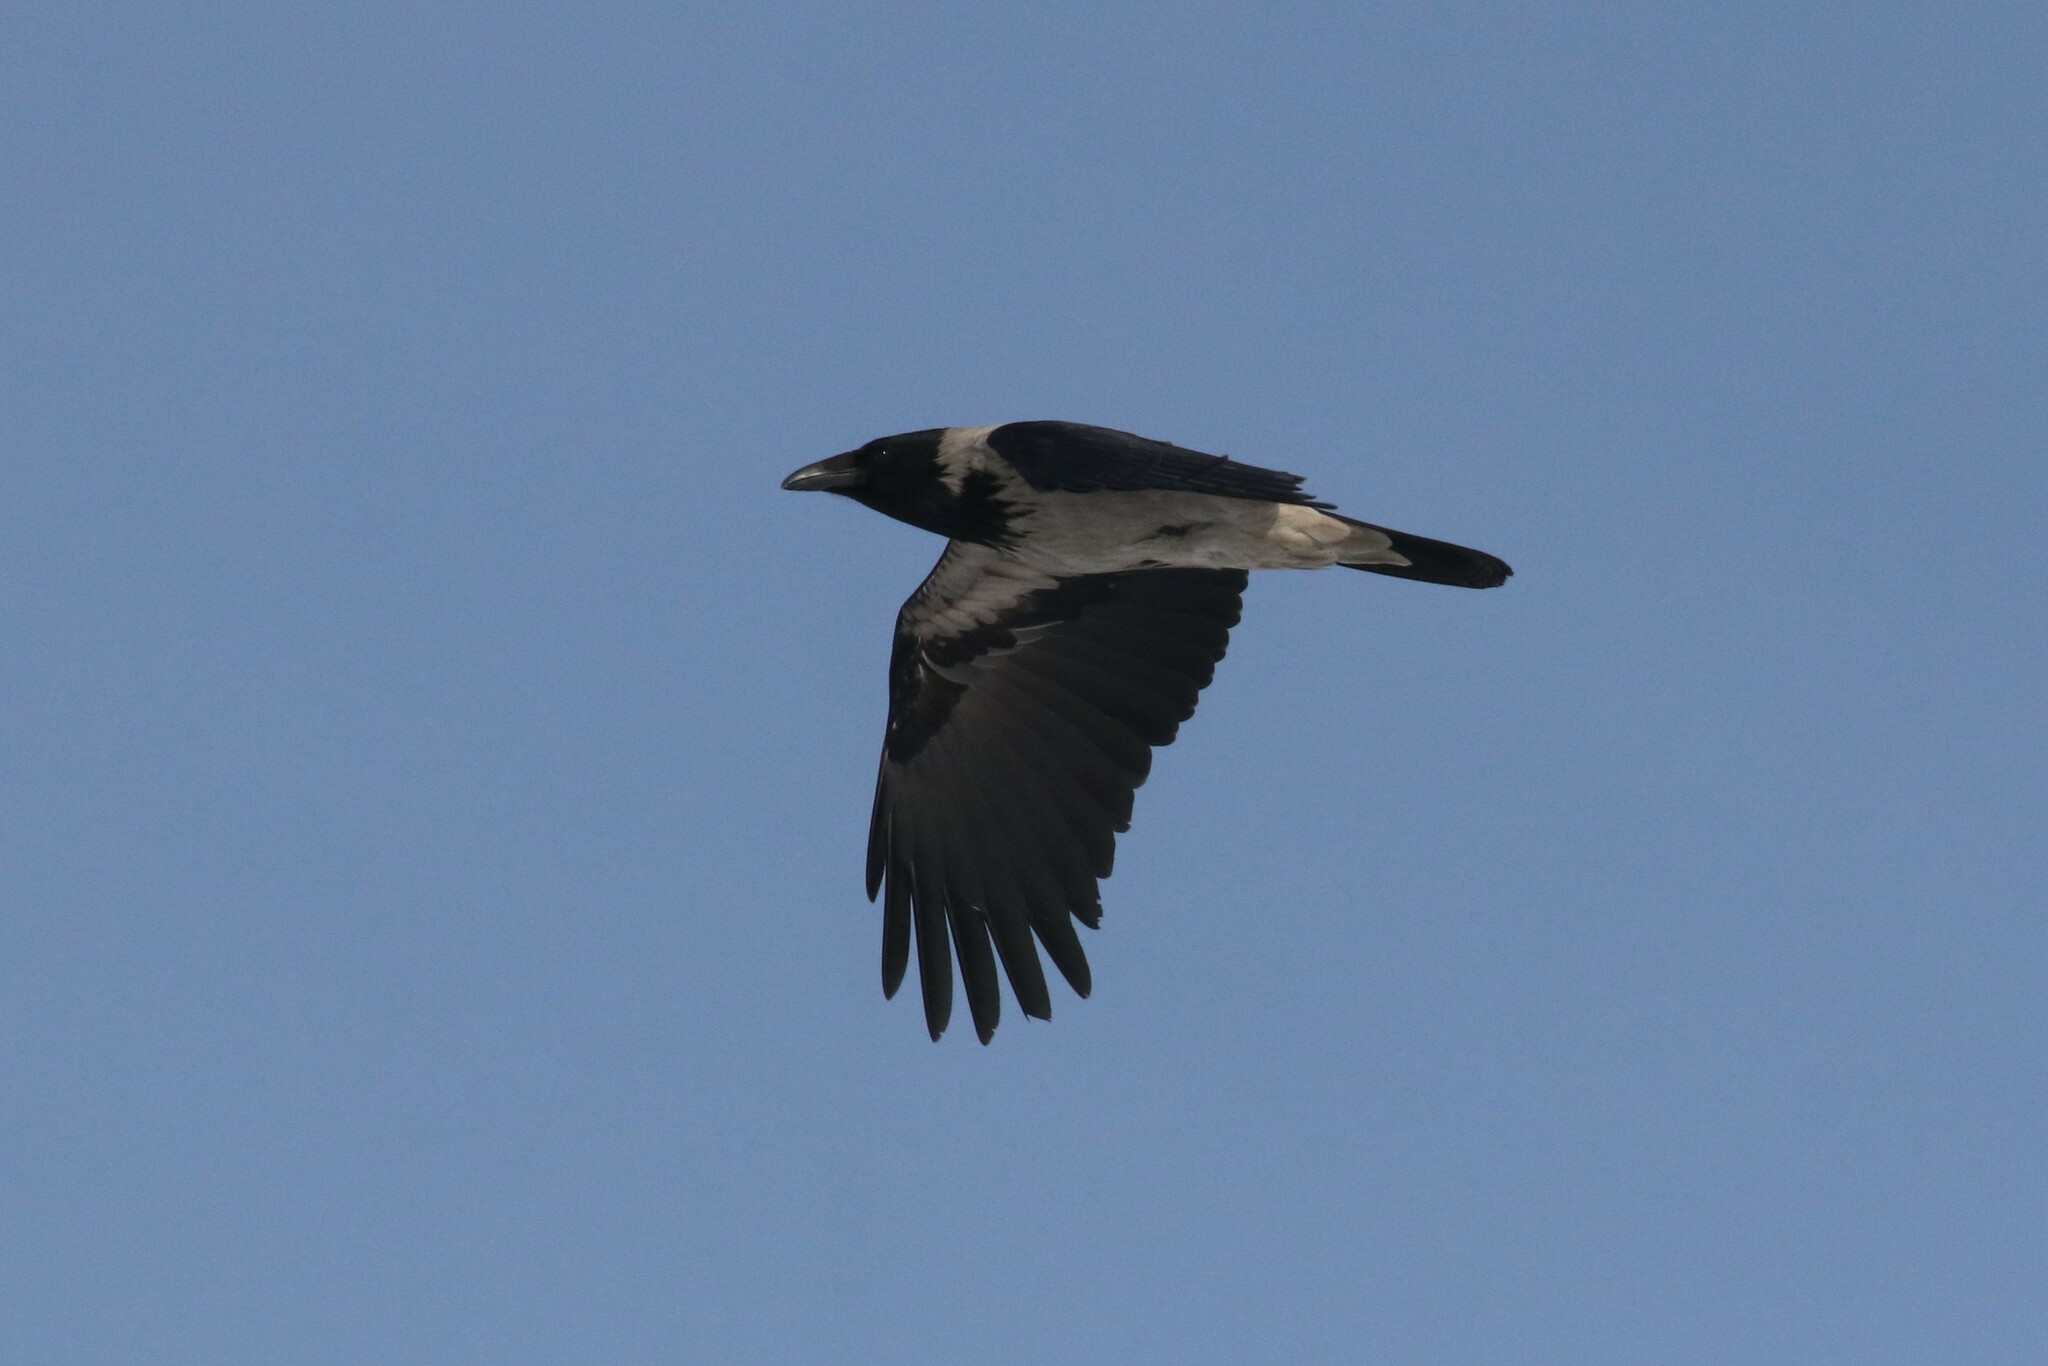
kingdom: Animalia
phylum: Chordata
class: Aves
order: Passeriformes
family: Corvidae
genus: Corvus
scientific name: Corvus cornix
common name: Hooded crow
